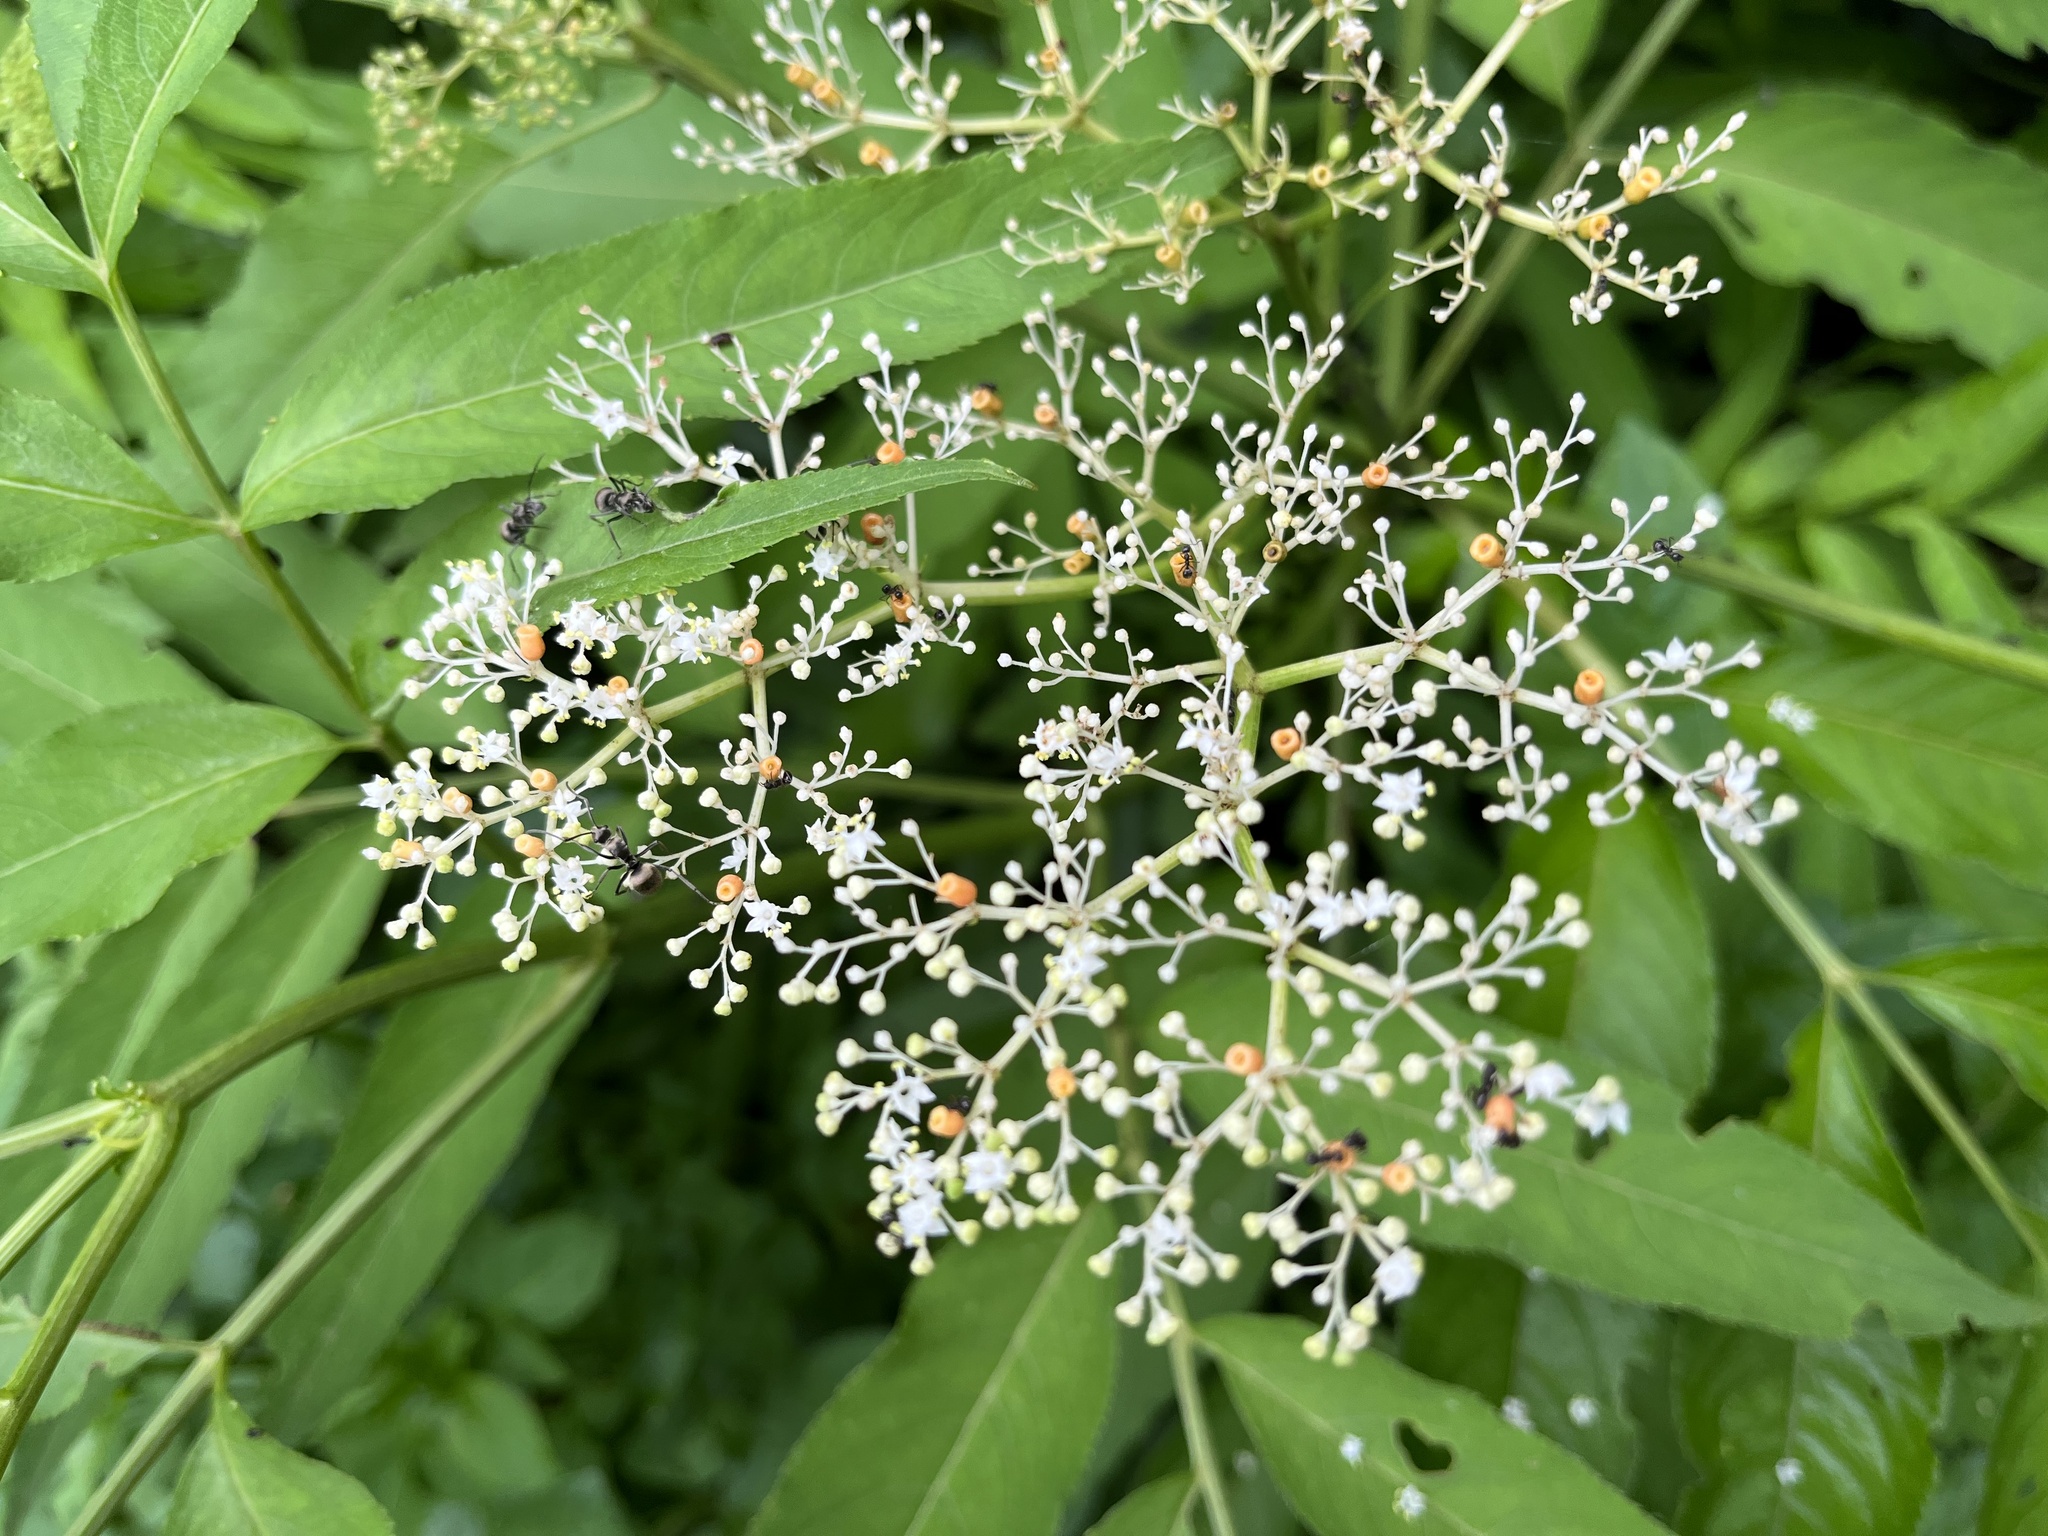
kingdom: Plantae
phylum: Tracheophyta
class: Magnoliopsida
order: Dipsacales
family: Viburnaceae
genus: Sambucus
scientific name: Sambucus javanica
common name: Chinese elder
